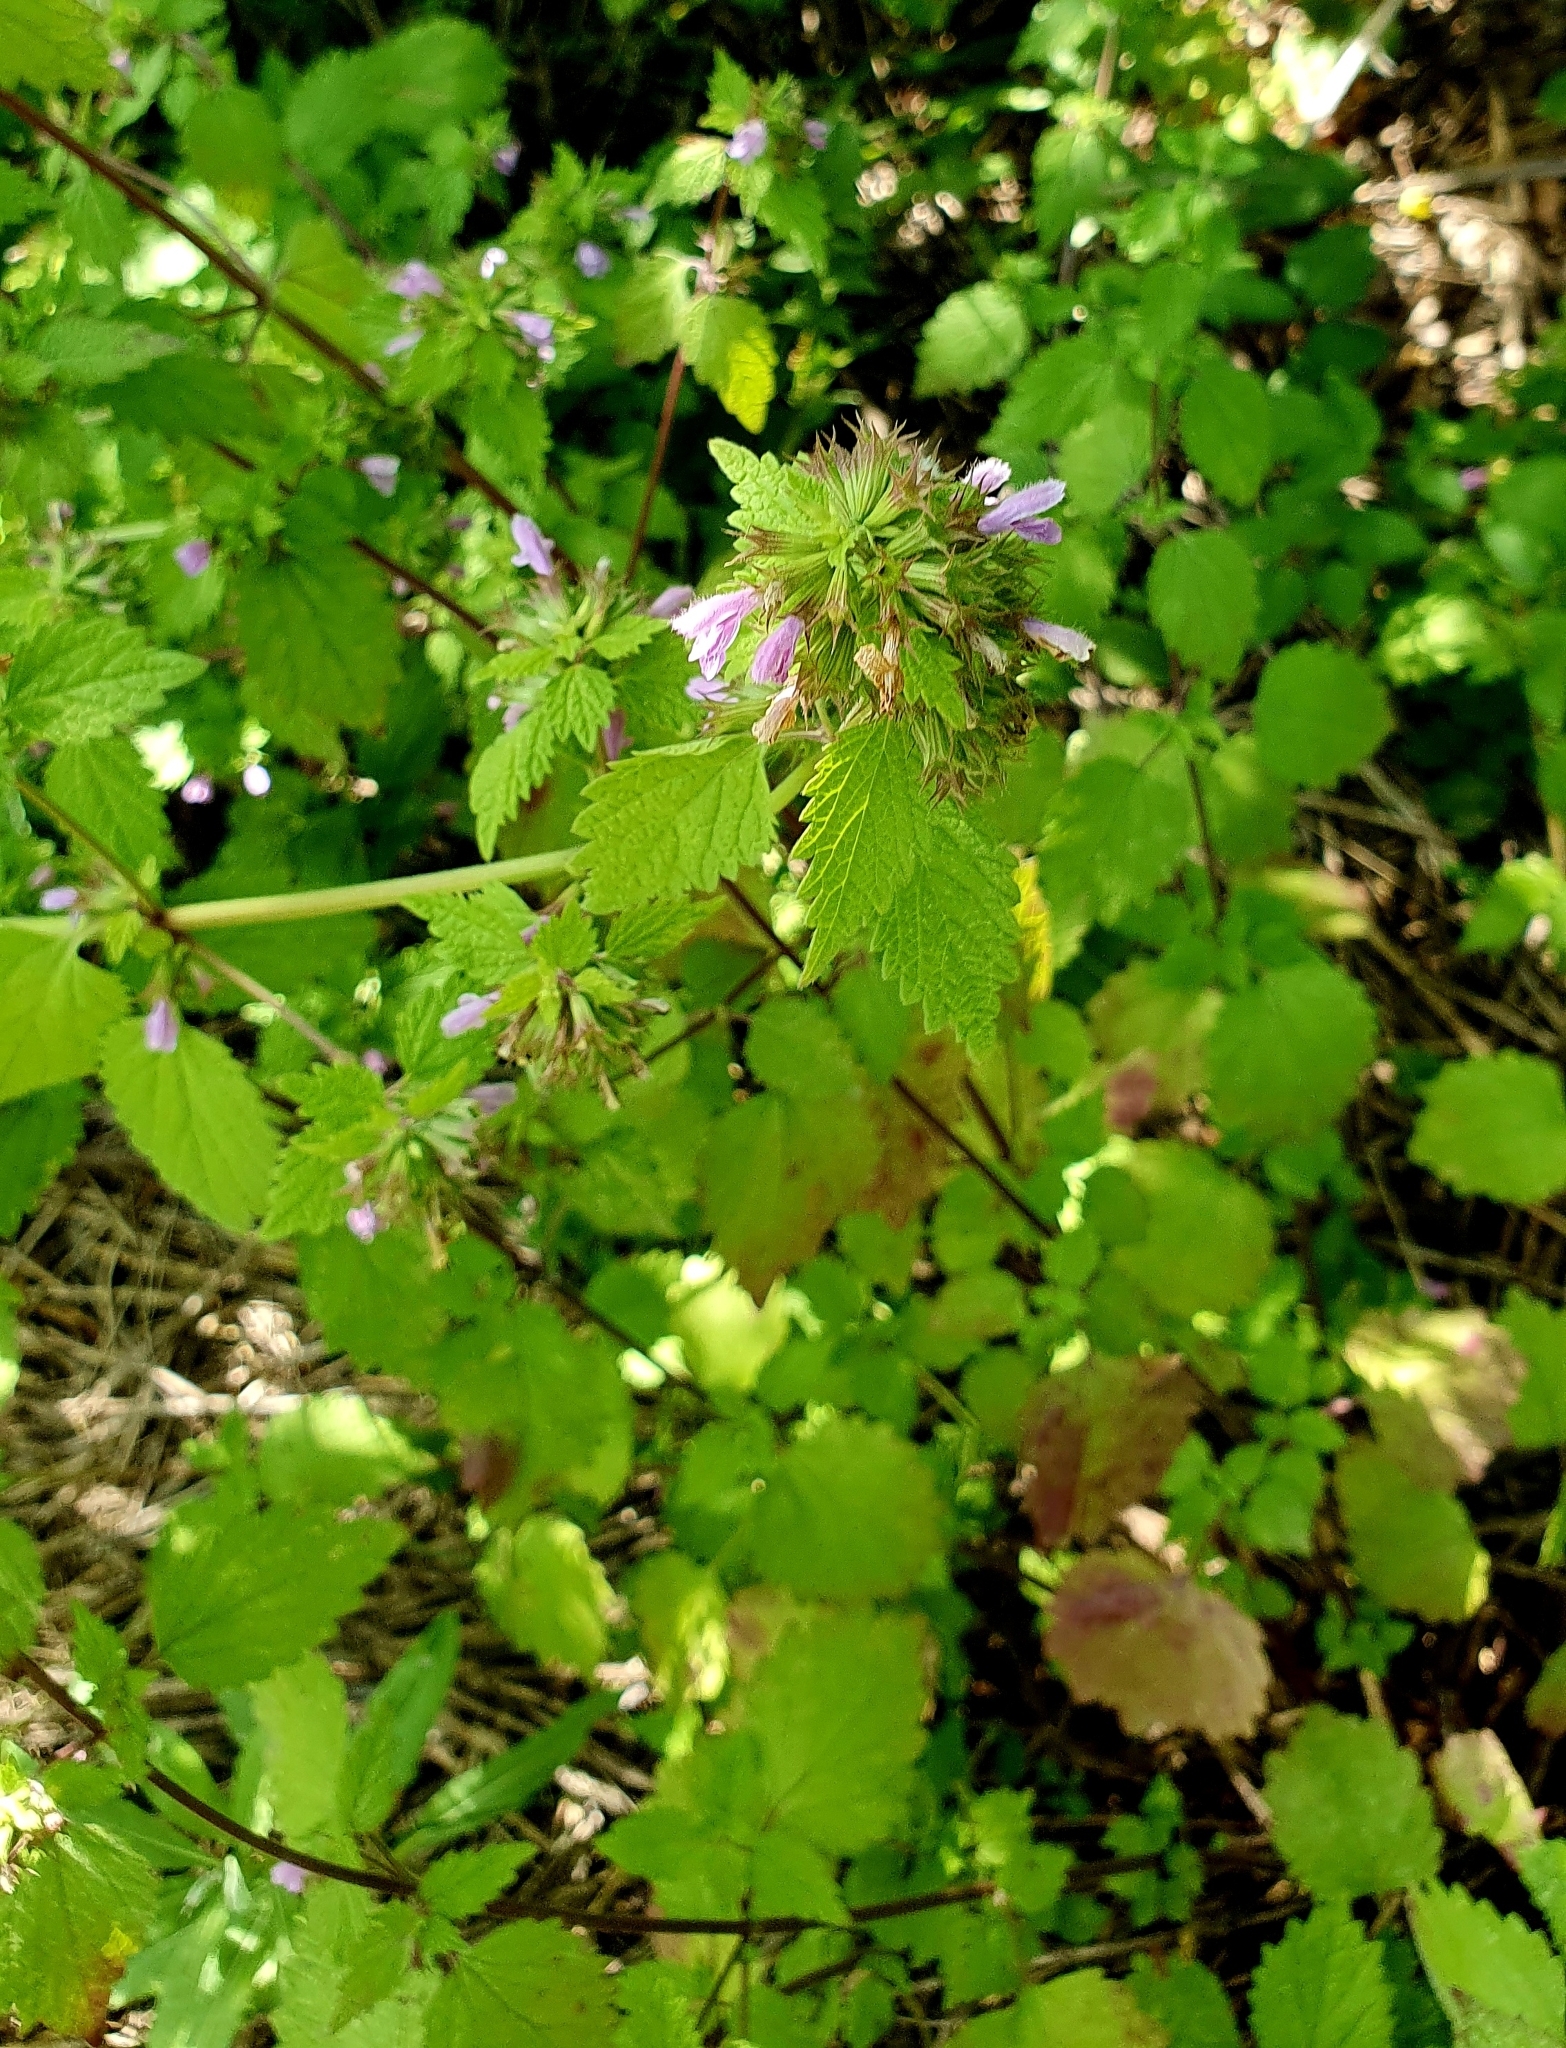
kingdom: Plantae
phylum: Tracheophyta
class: Magnoliopsida
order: Lamiales
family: Lamiaceae
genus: Ballota
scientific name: Ballota nigra
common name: Black horehound
